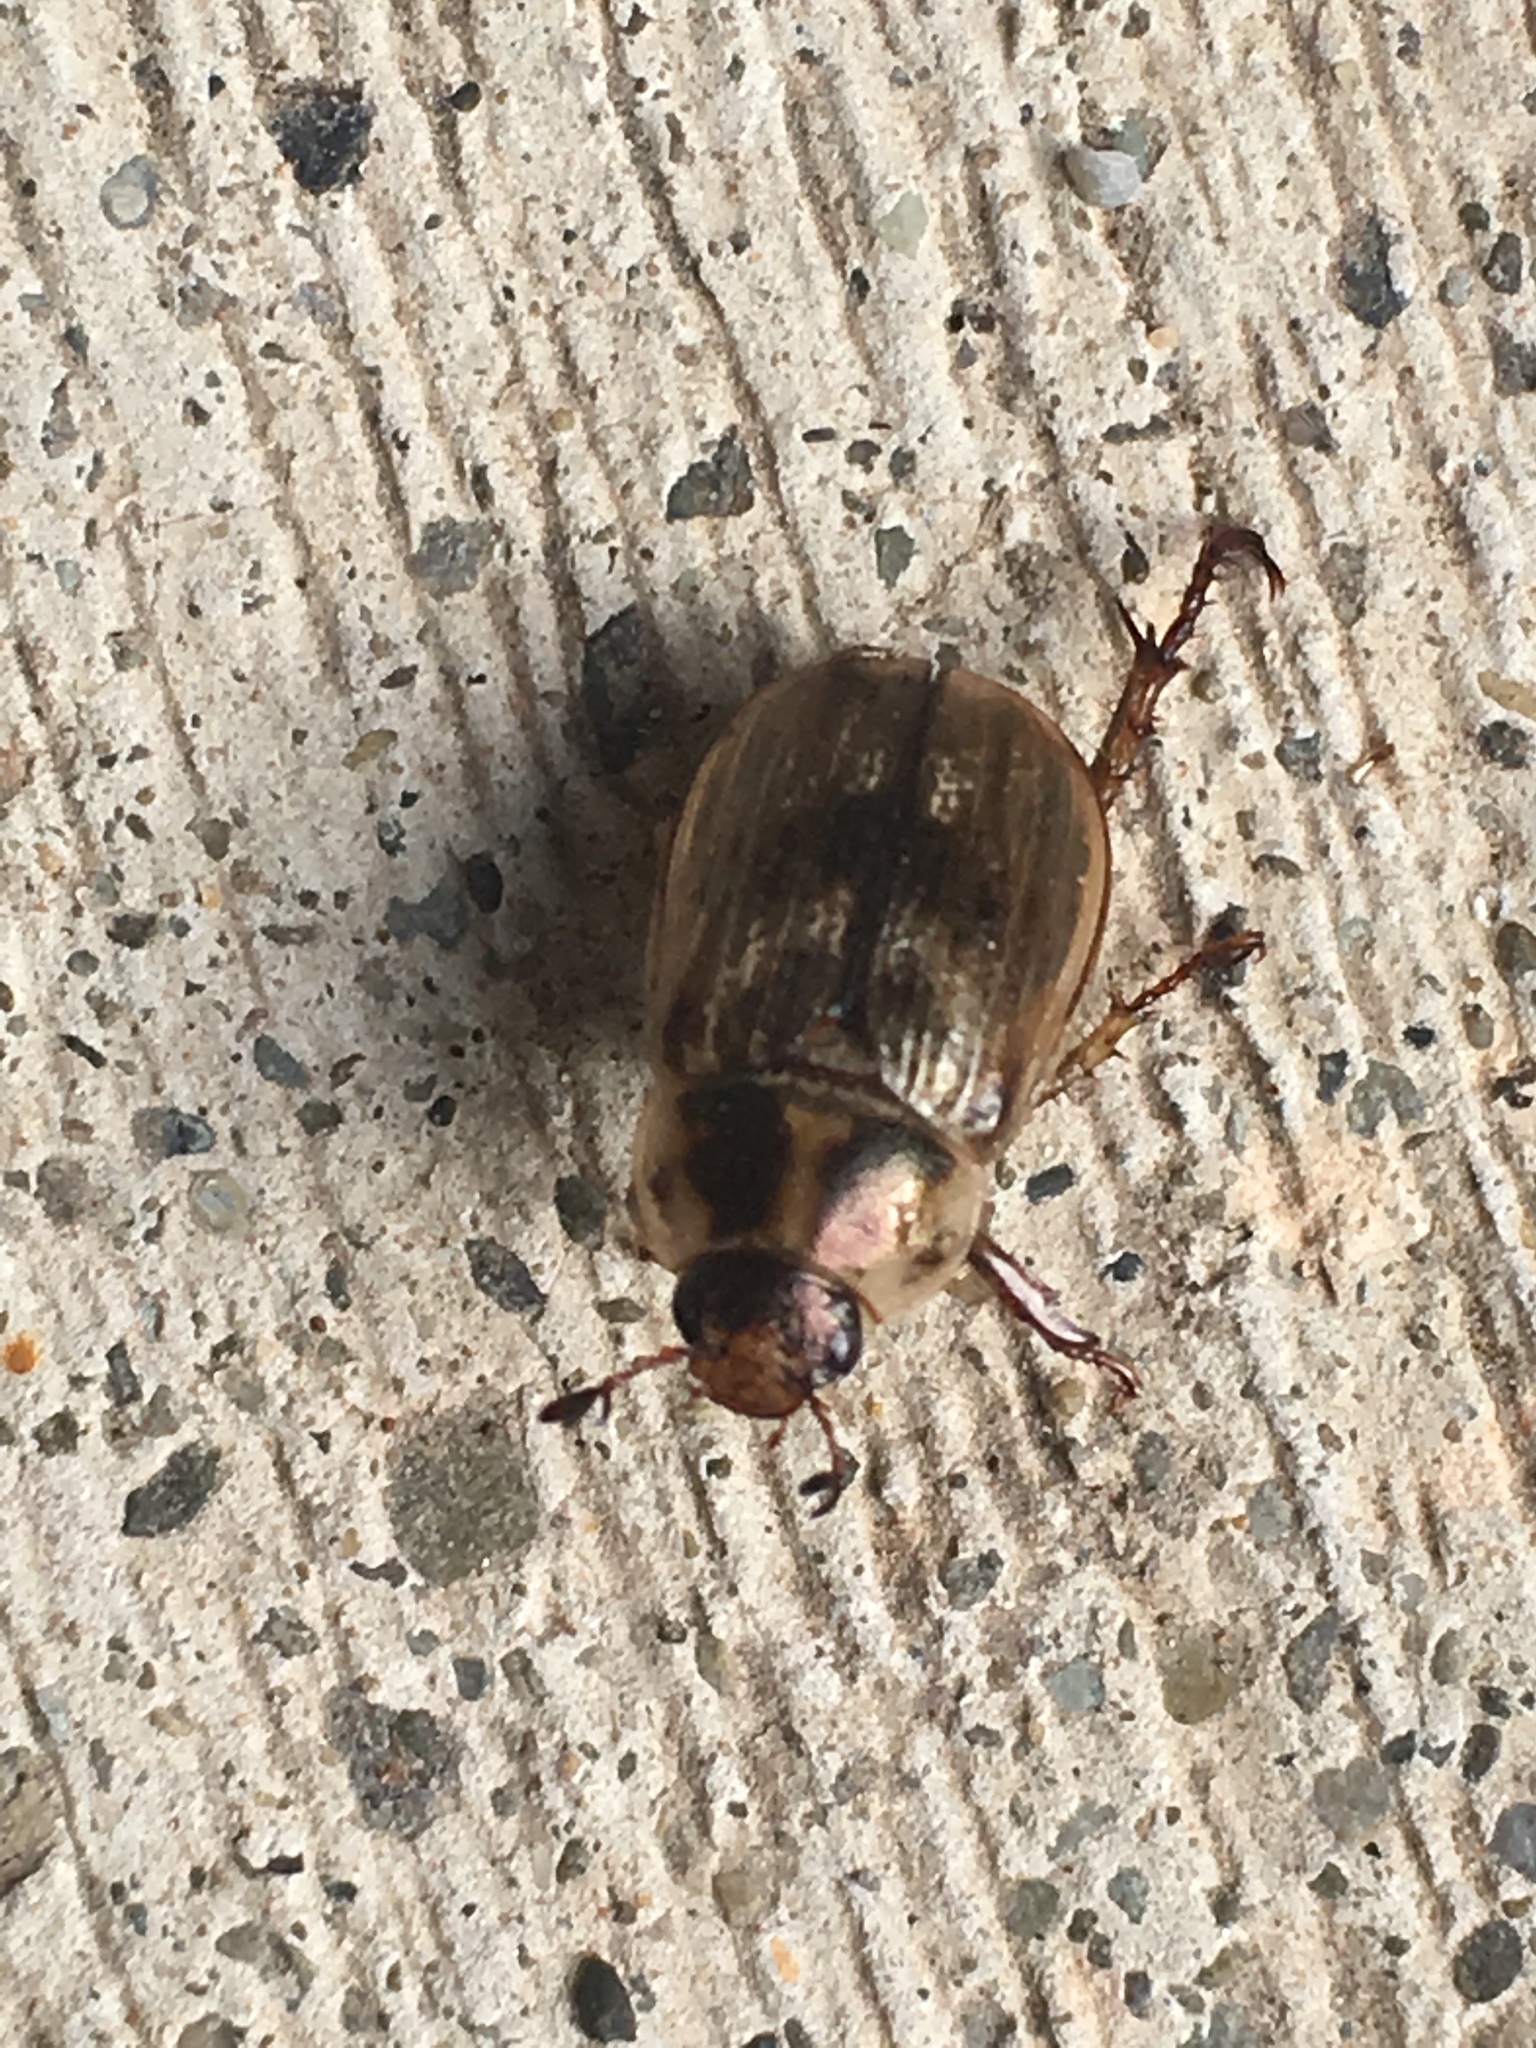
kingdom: Animalia
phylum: Arthropoda
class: Insecta
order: Coleoptera
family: Scarabaeidae
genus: Exomala
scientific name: Exomala orientalis
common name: Oriental beetle
